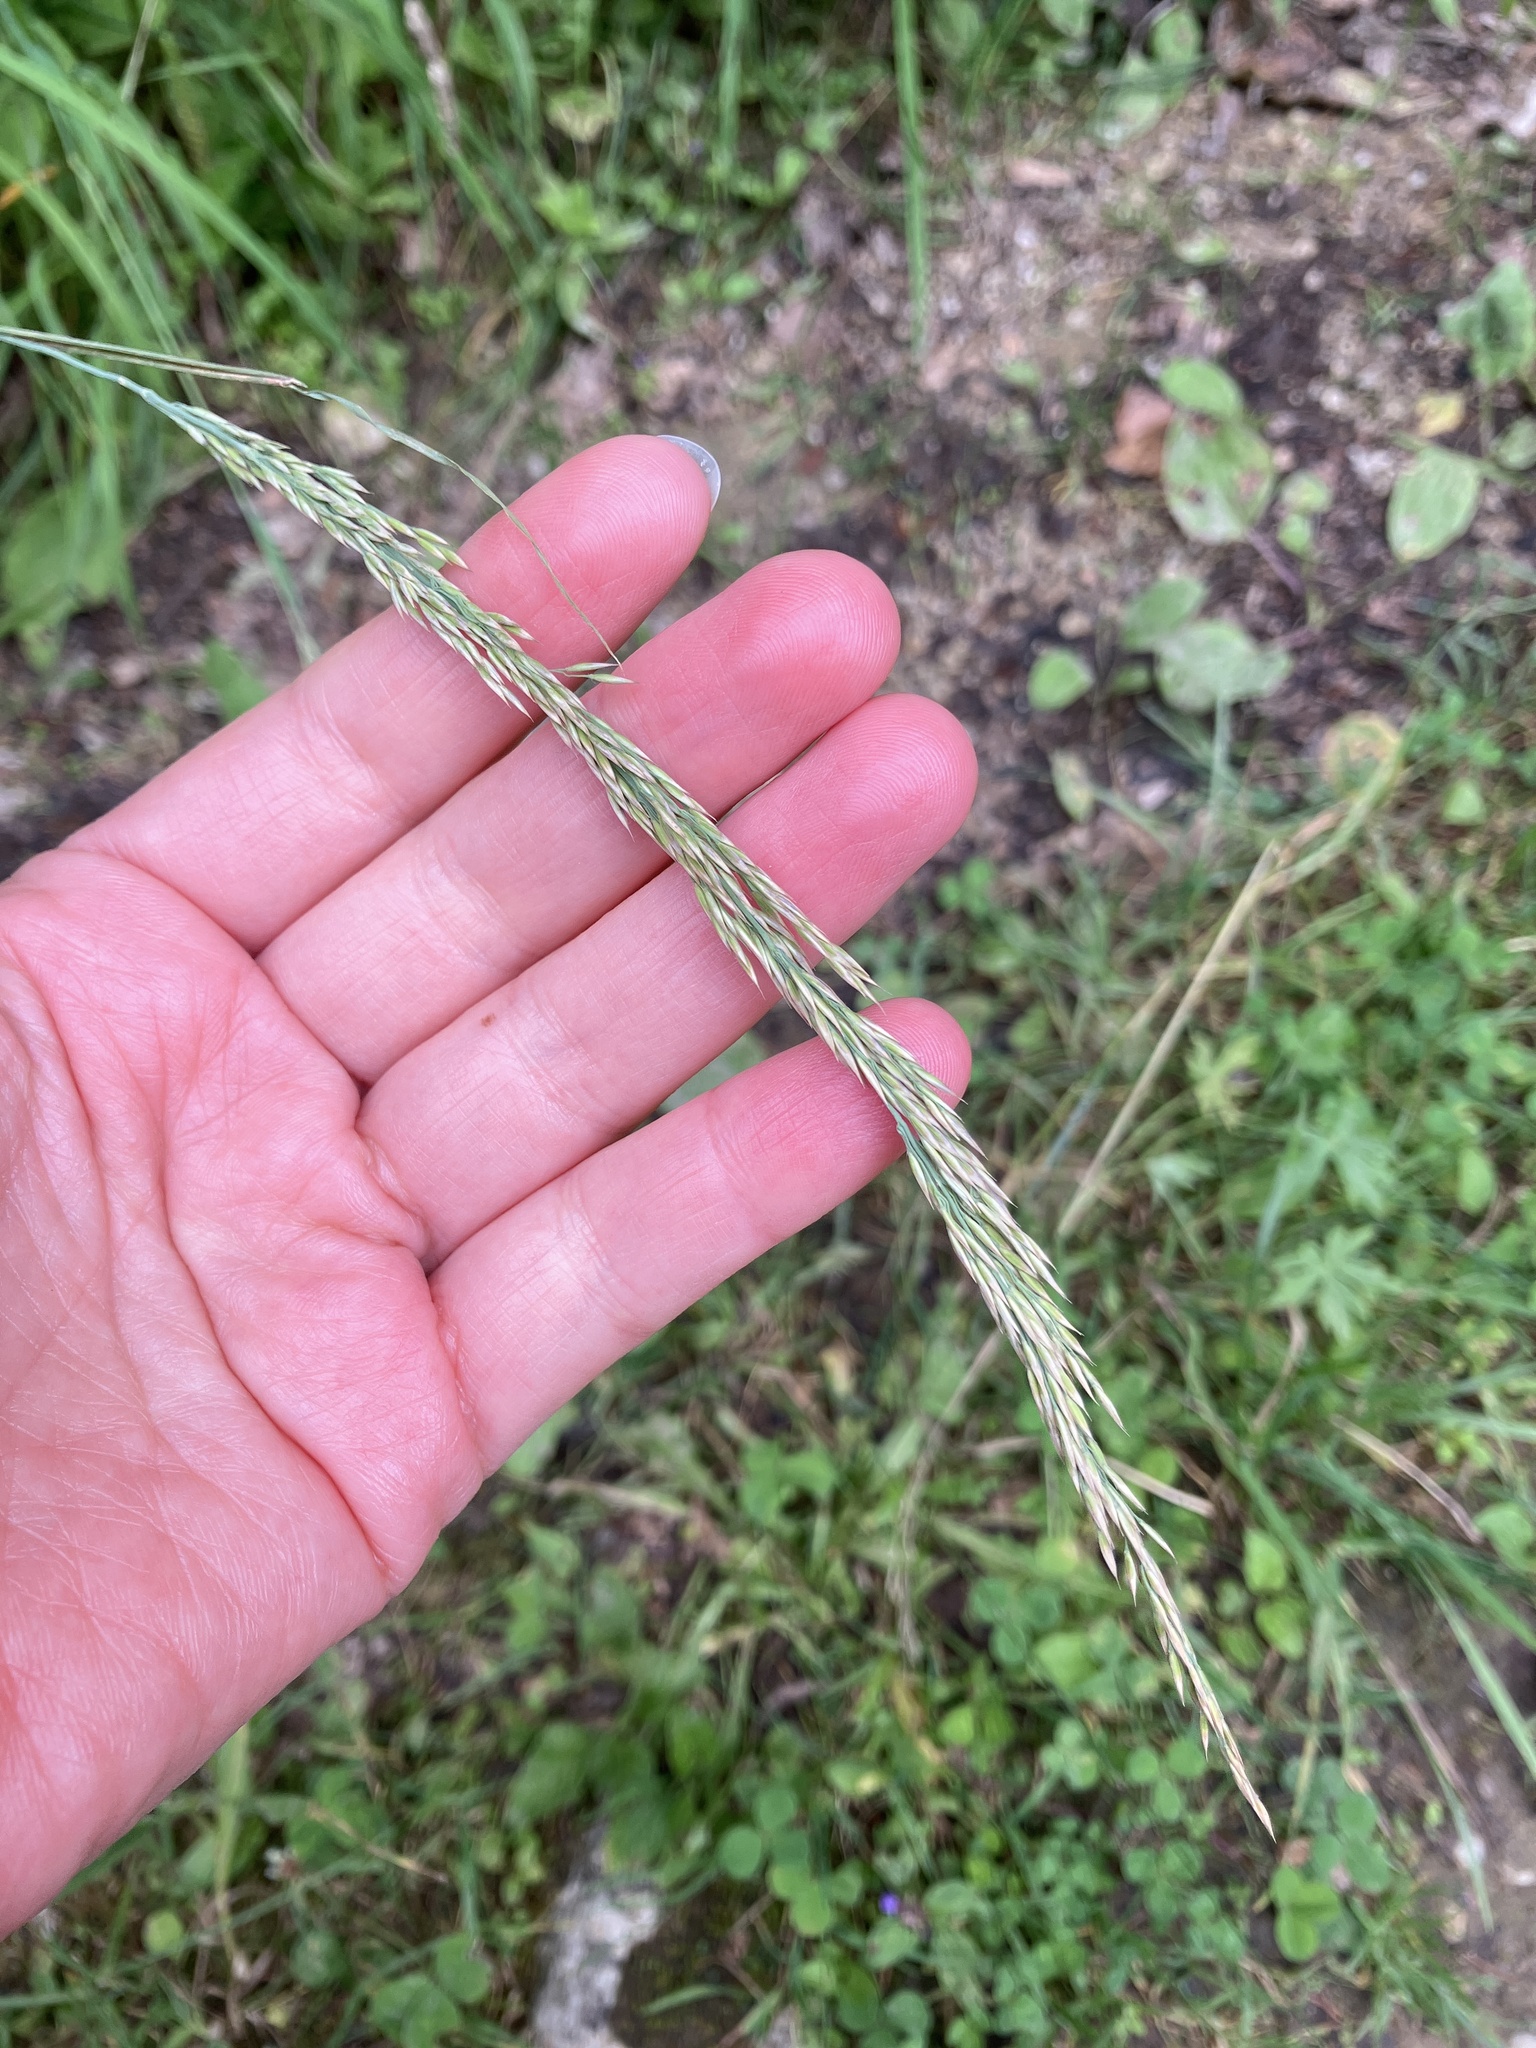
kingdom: Plantae
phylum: Tracheophyta
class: Liliopsida
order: Poales
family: Poaceae
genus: Calamagrostis
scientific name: Calamagrostis varia
